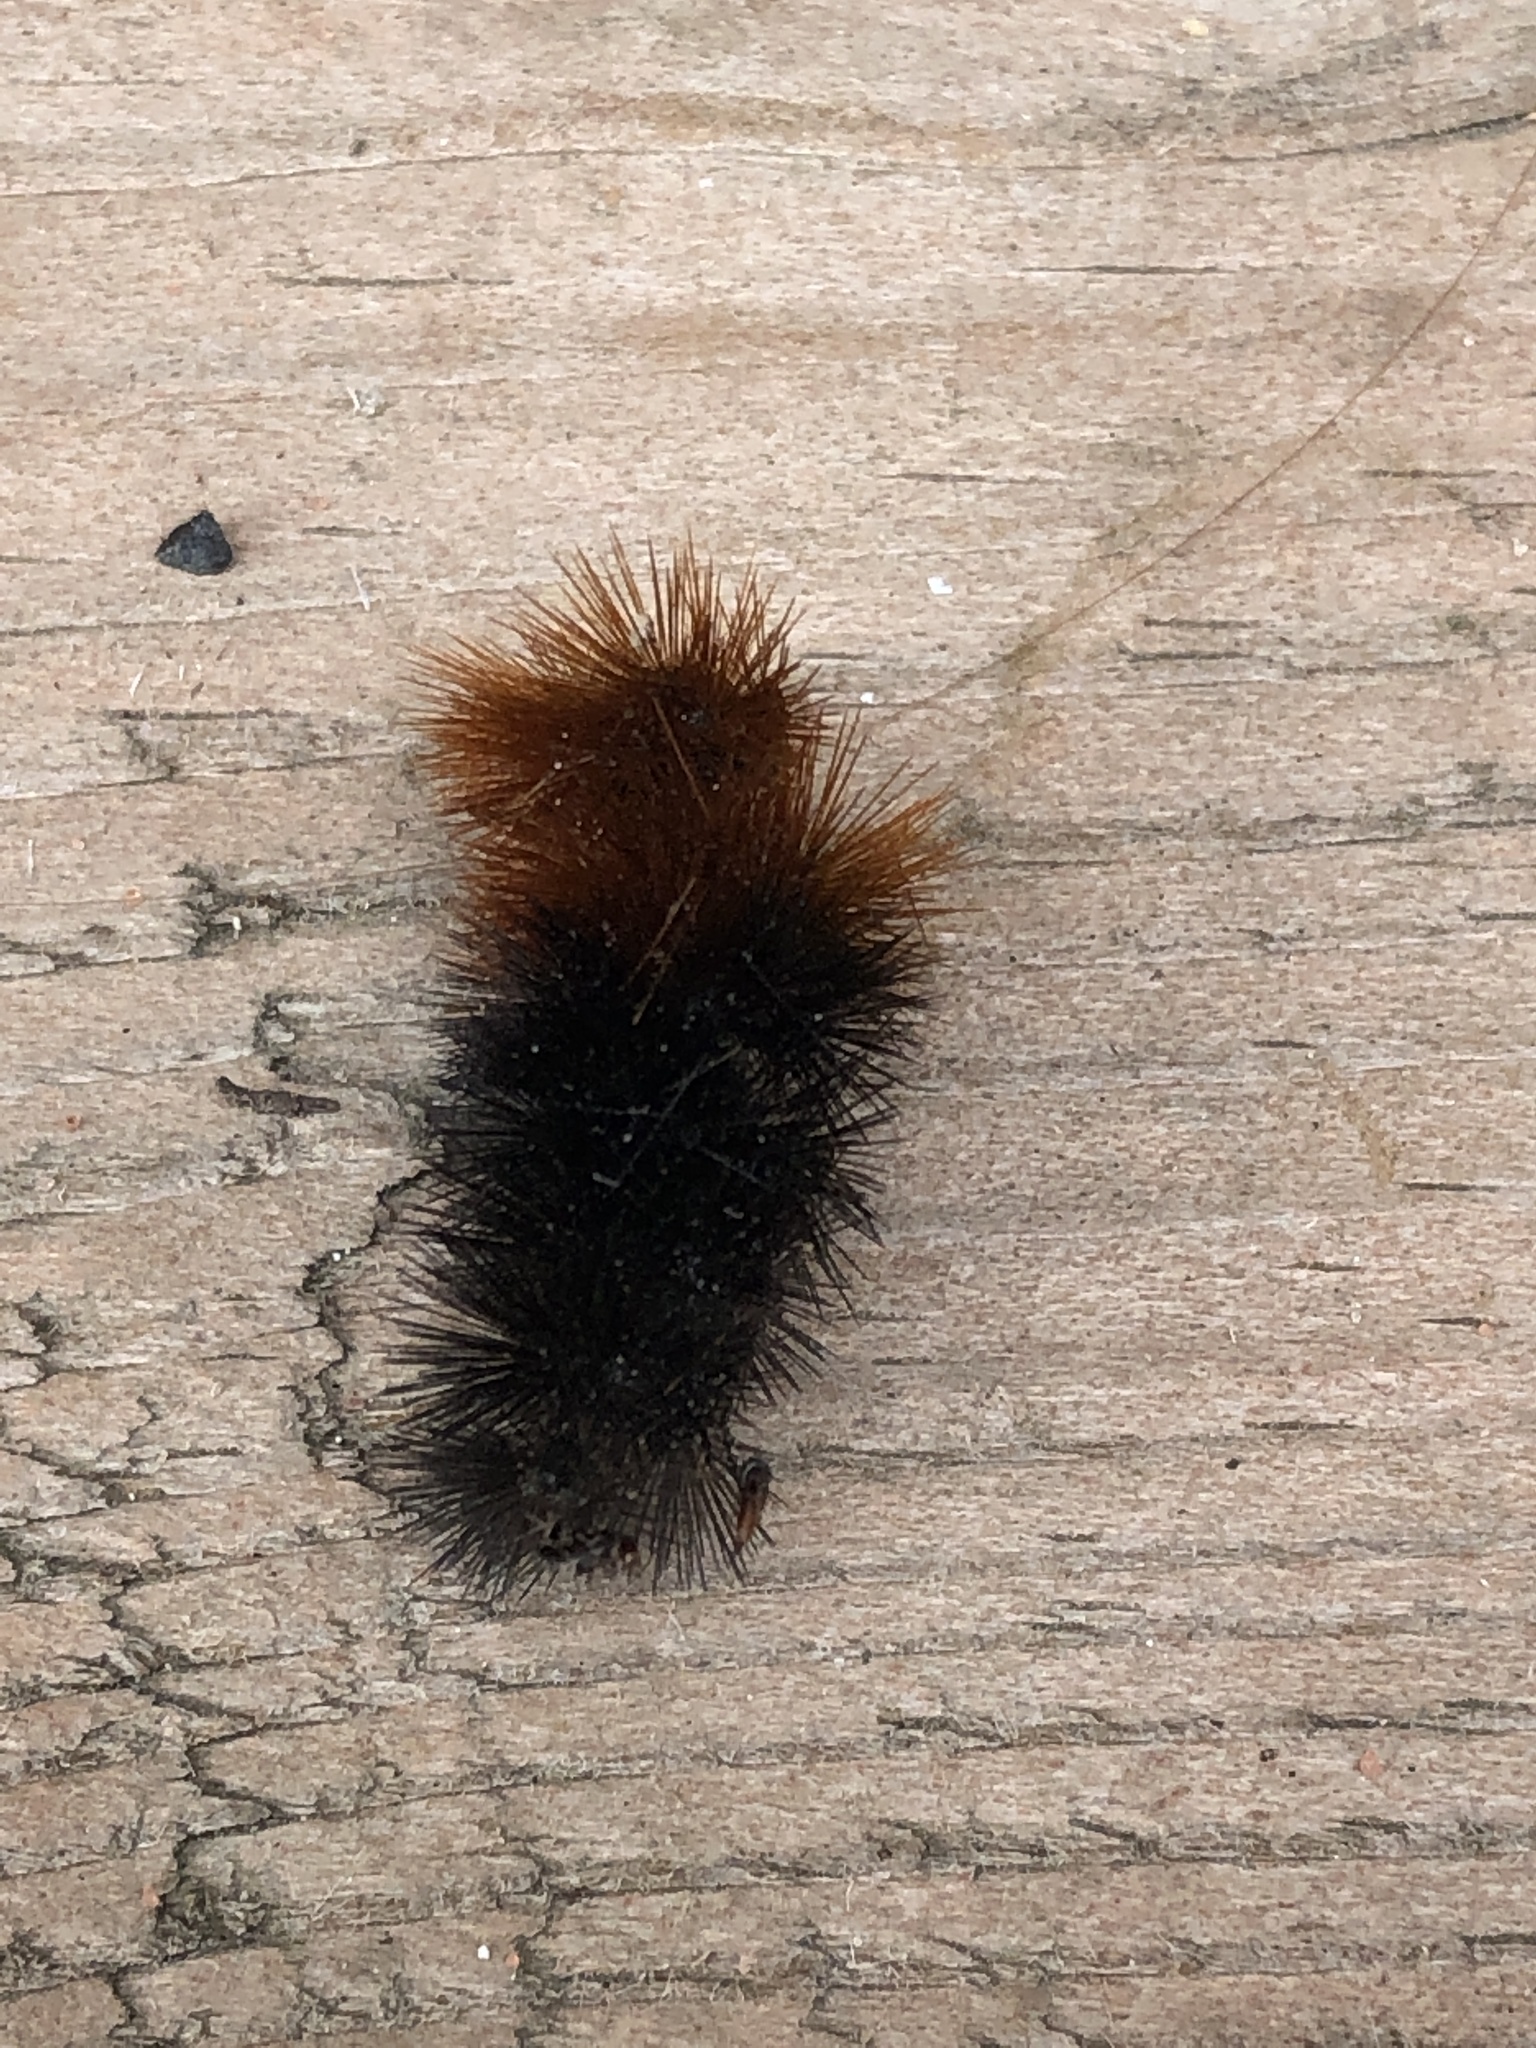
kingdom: Animalia
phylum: Arthropoda
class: Insecta
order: Lepidoptera
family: Erebidae
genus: Pyrrharctia
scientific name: Pyrrharctia isabella
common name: Isabella tiger moth
